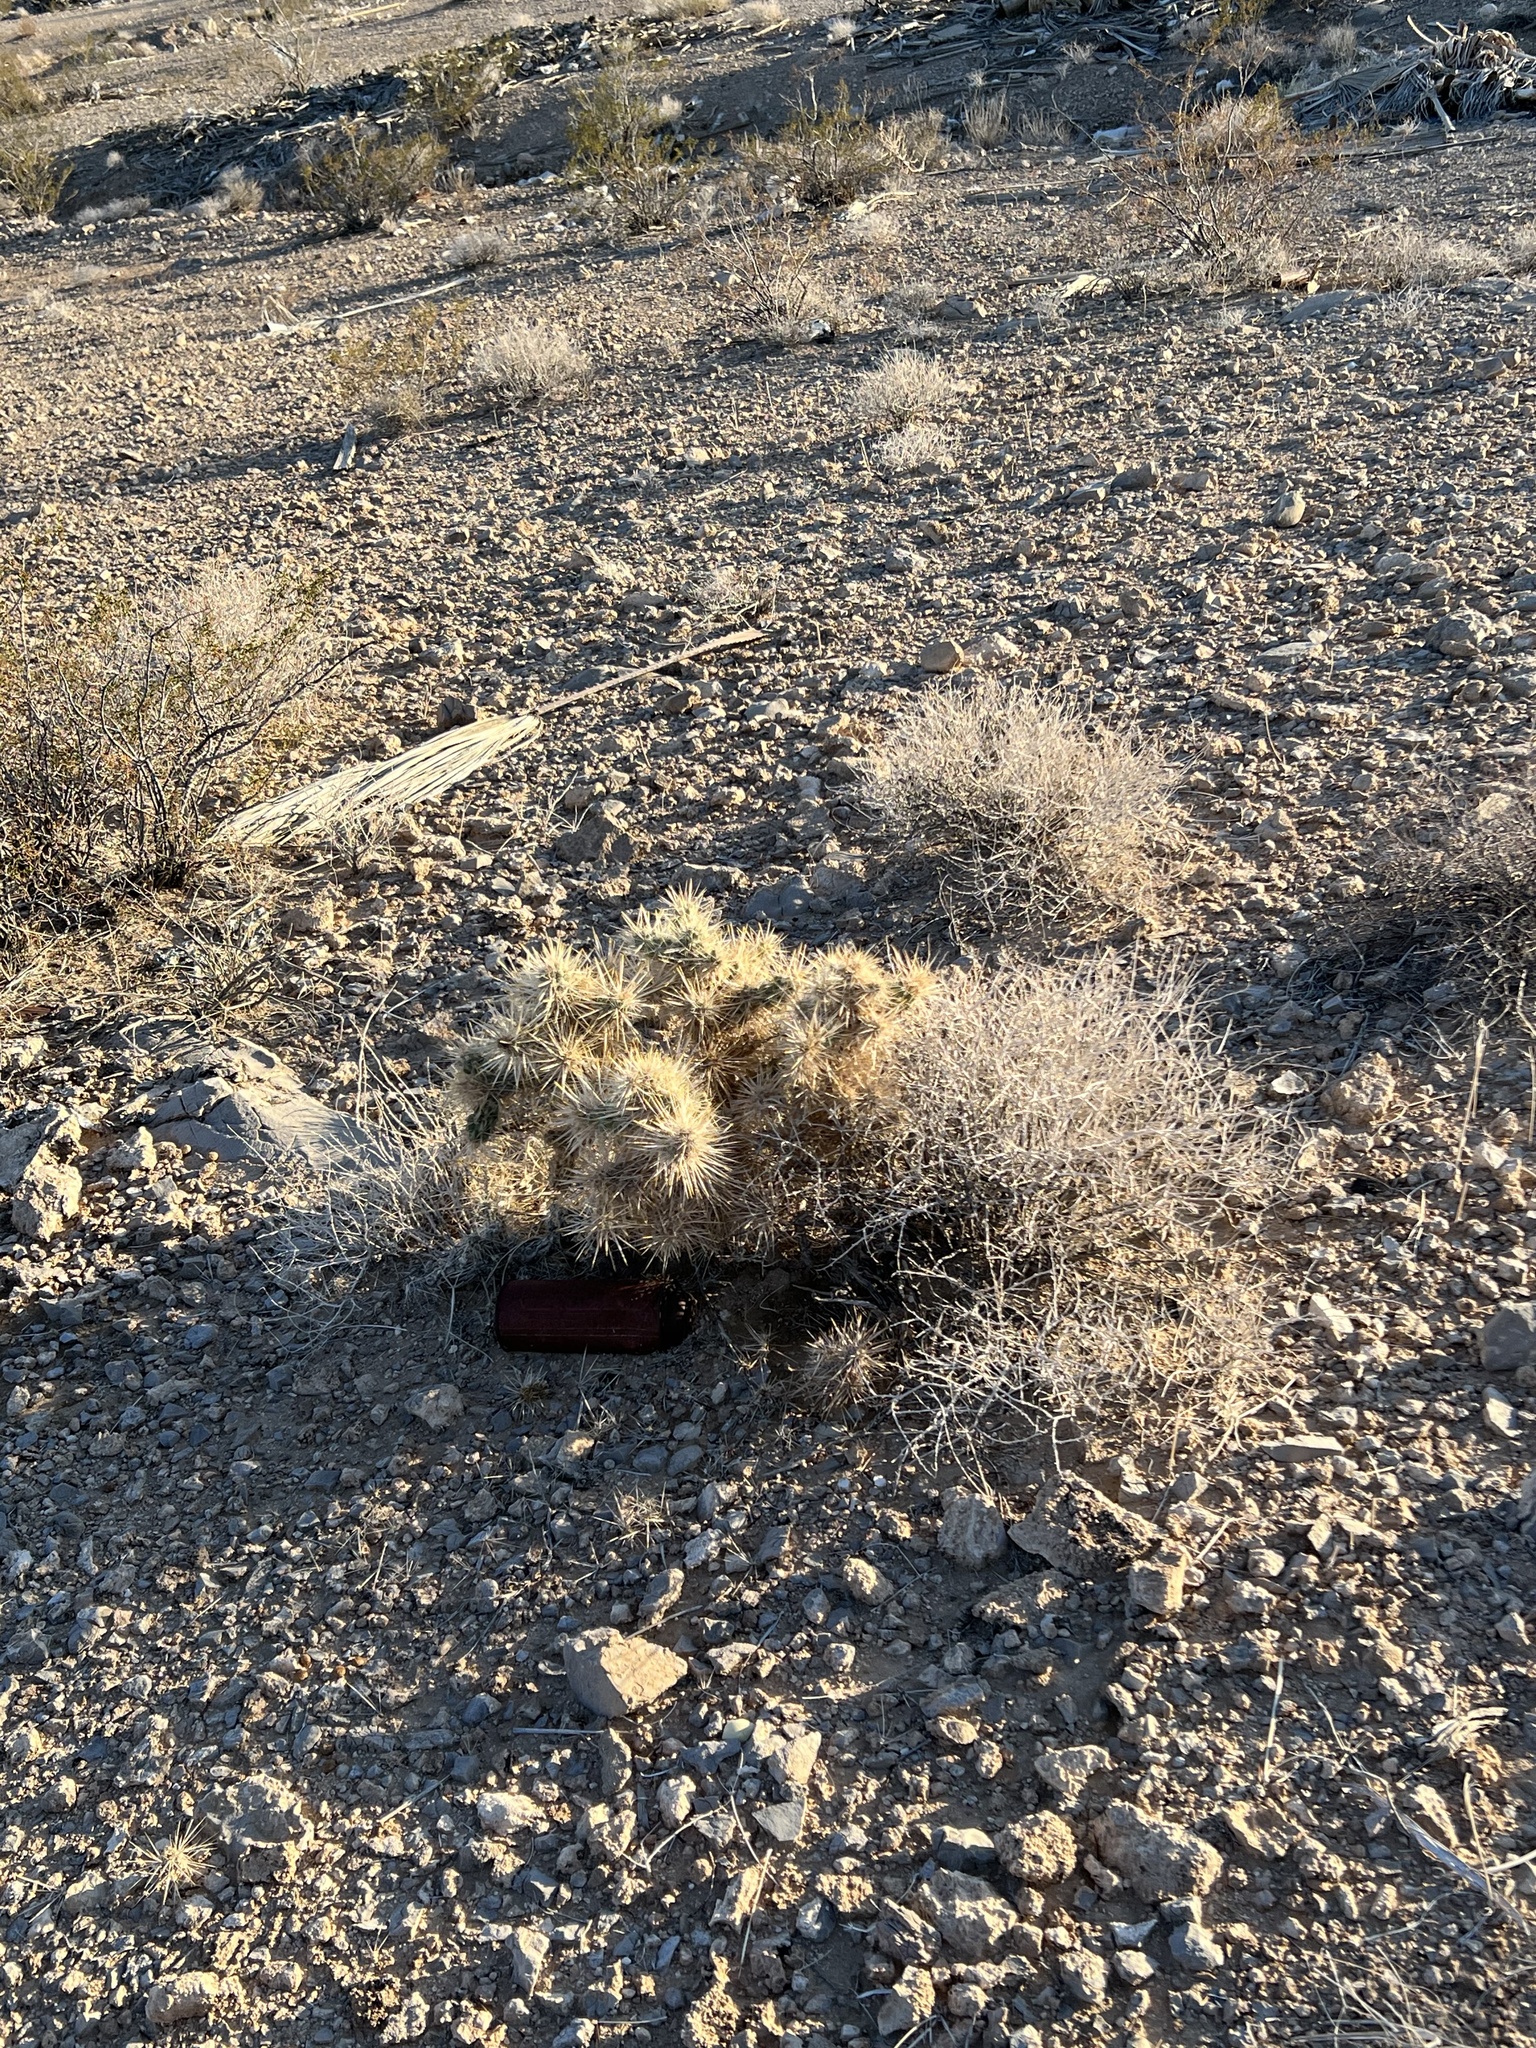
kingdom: Plantae
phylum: Tracheophyta
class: Magnoliopsida
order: Caryophyllales
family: Cactaceae
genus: Cylindropuntia
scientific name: Cylindropuntia echinocarpa
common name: Ground cholla
